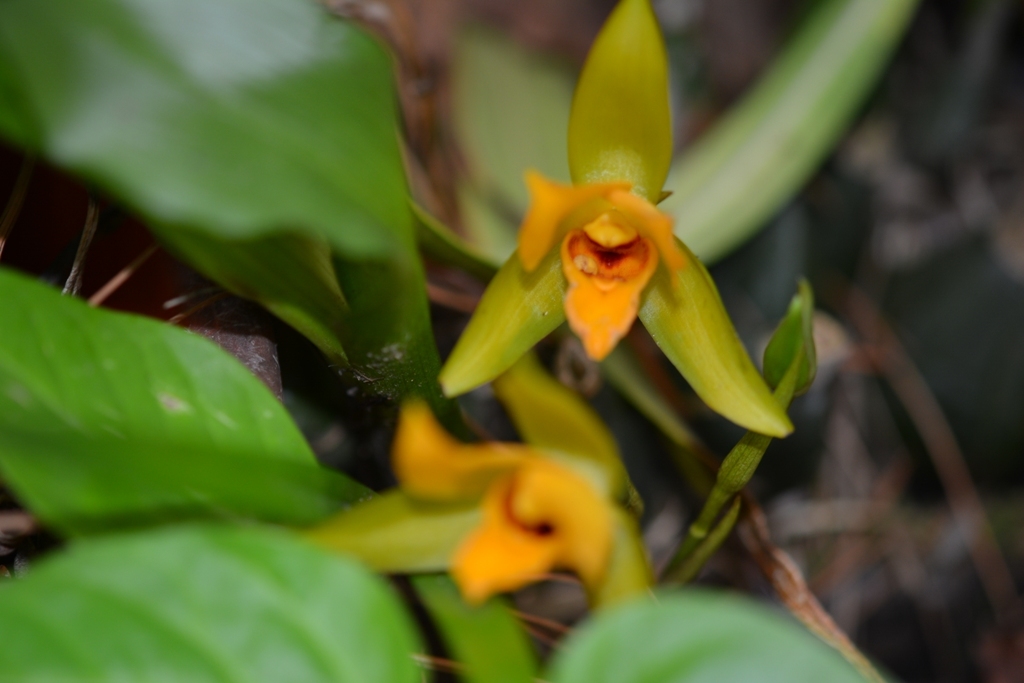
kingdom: Plantae
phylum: Tracheophyta
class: Liliopsida
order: Asparagales
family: Orchidaceae
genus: Lycaste
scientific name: Lycaste cruenta
